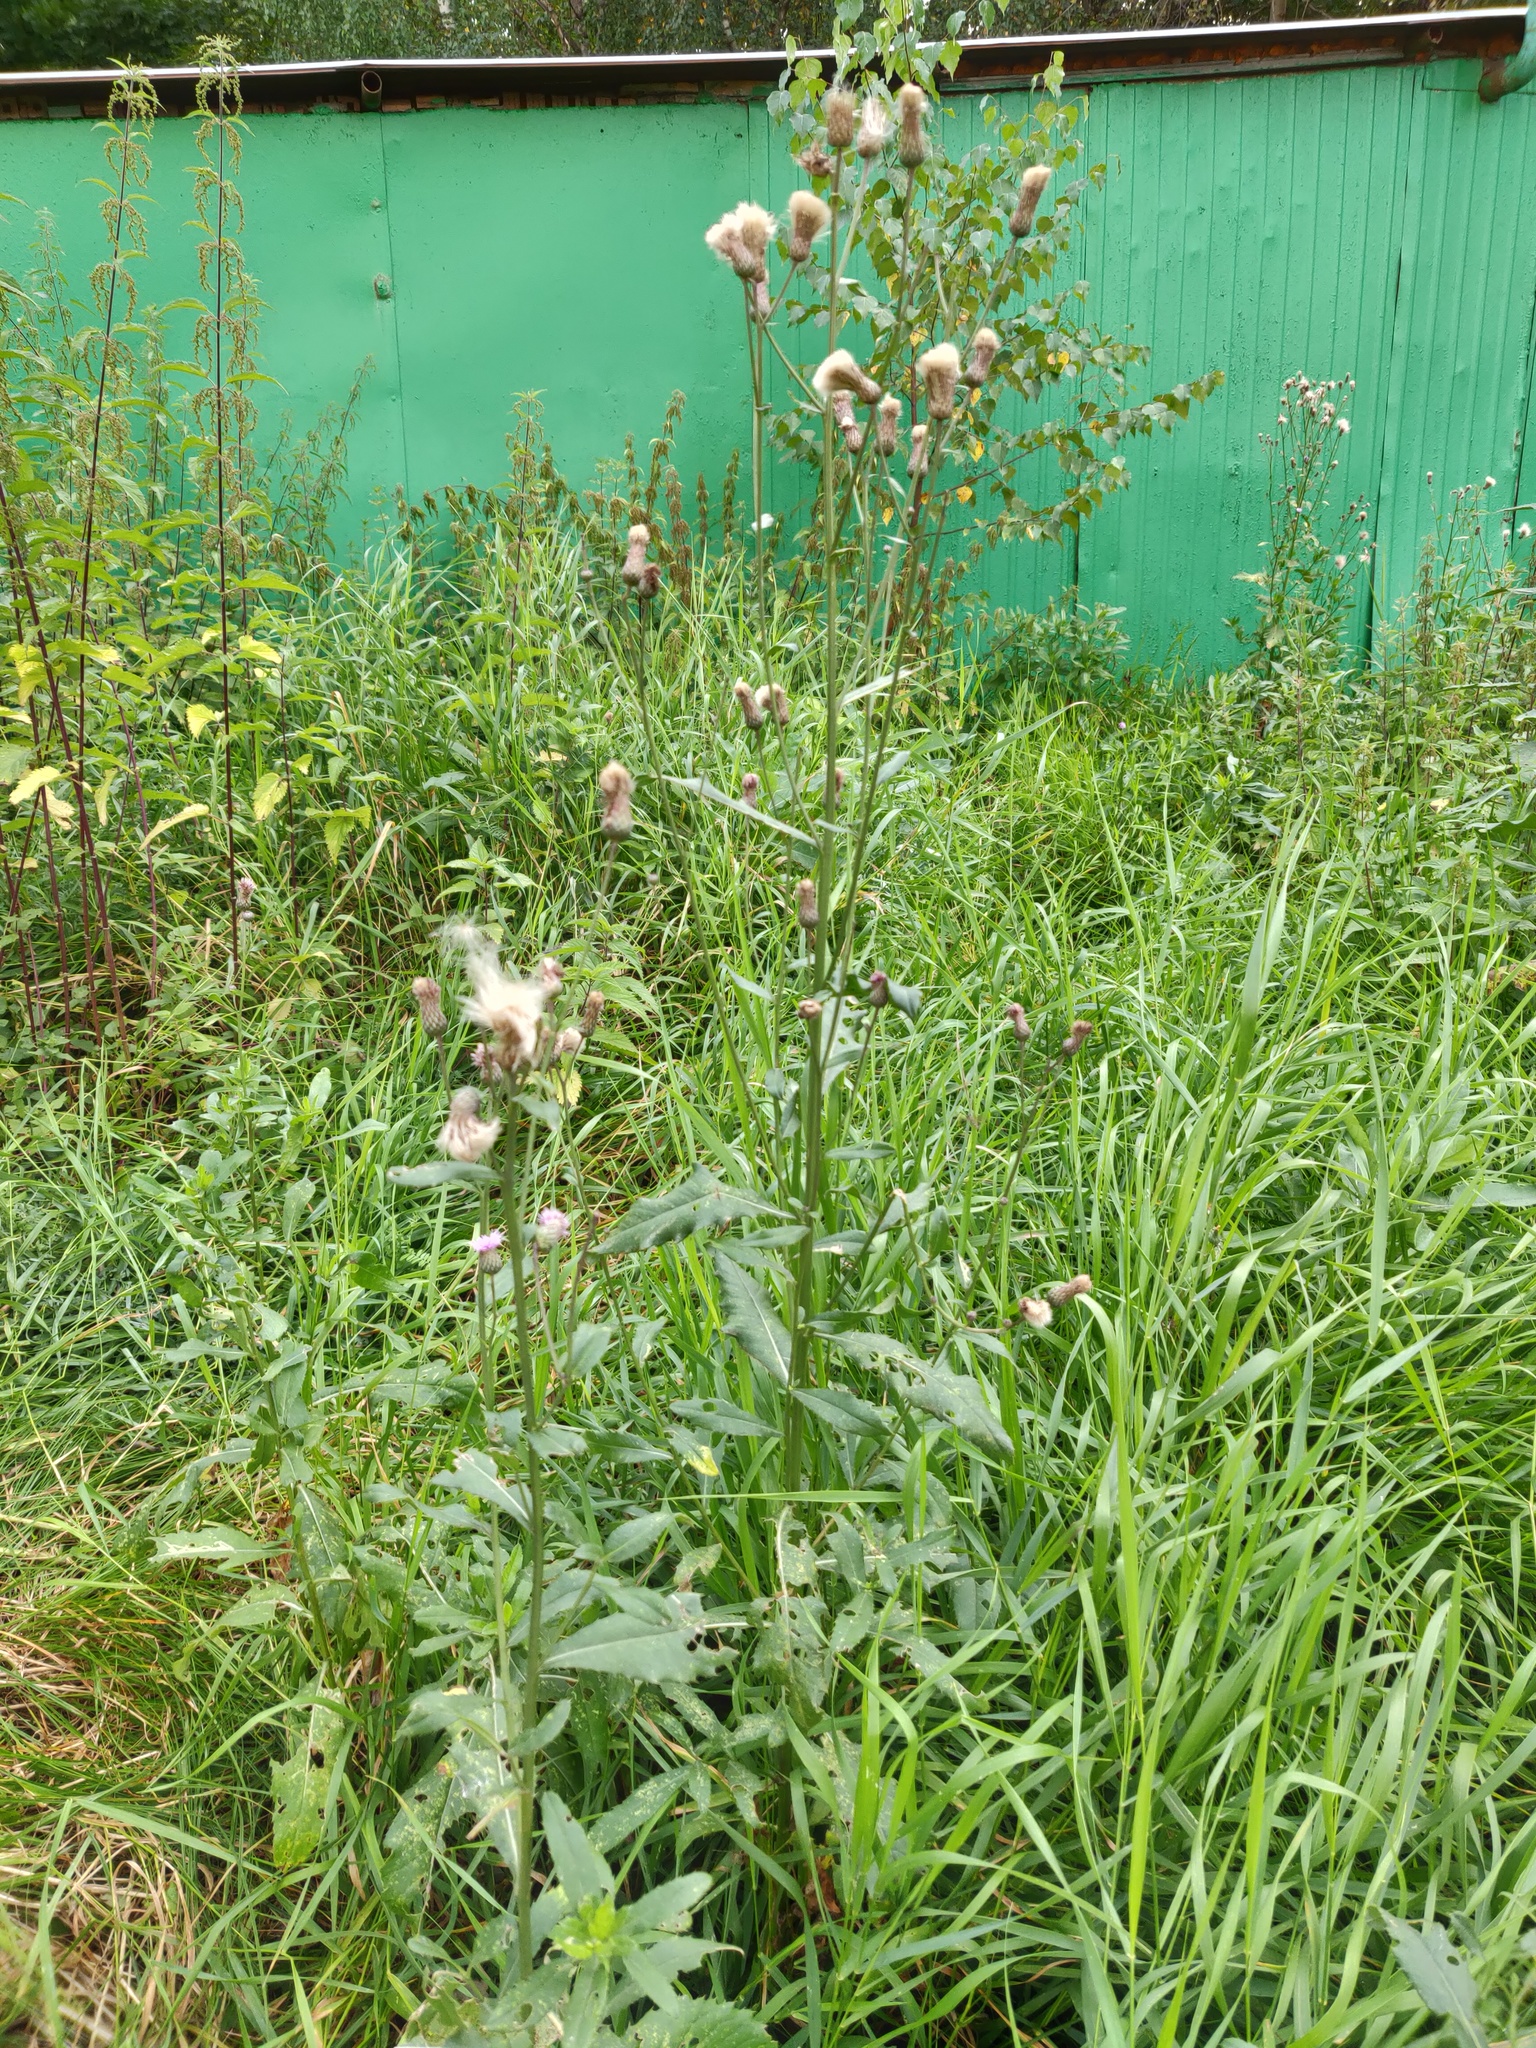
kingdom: Plantae
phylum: Tracheophyta
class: Magnoliopsida
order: Asterales
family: Asteraceae
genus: Cirsium
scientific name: Cirsium arvense
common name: Creeping thistle
